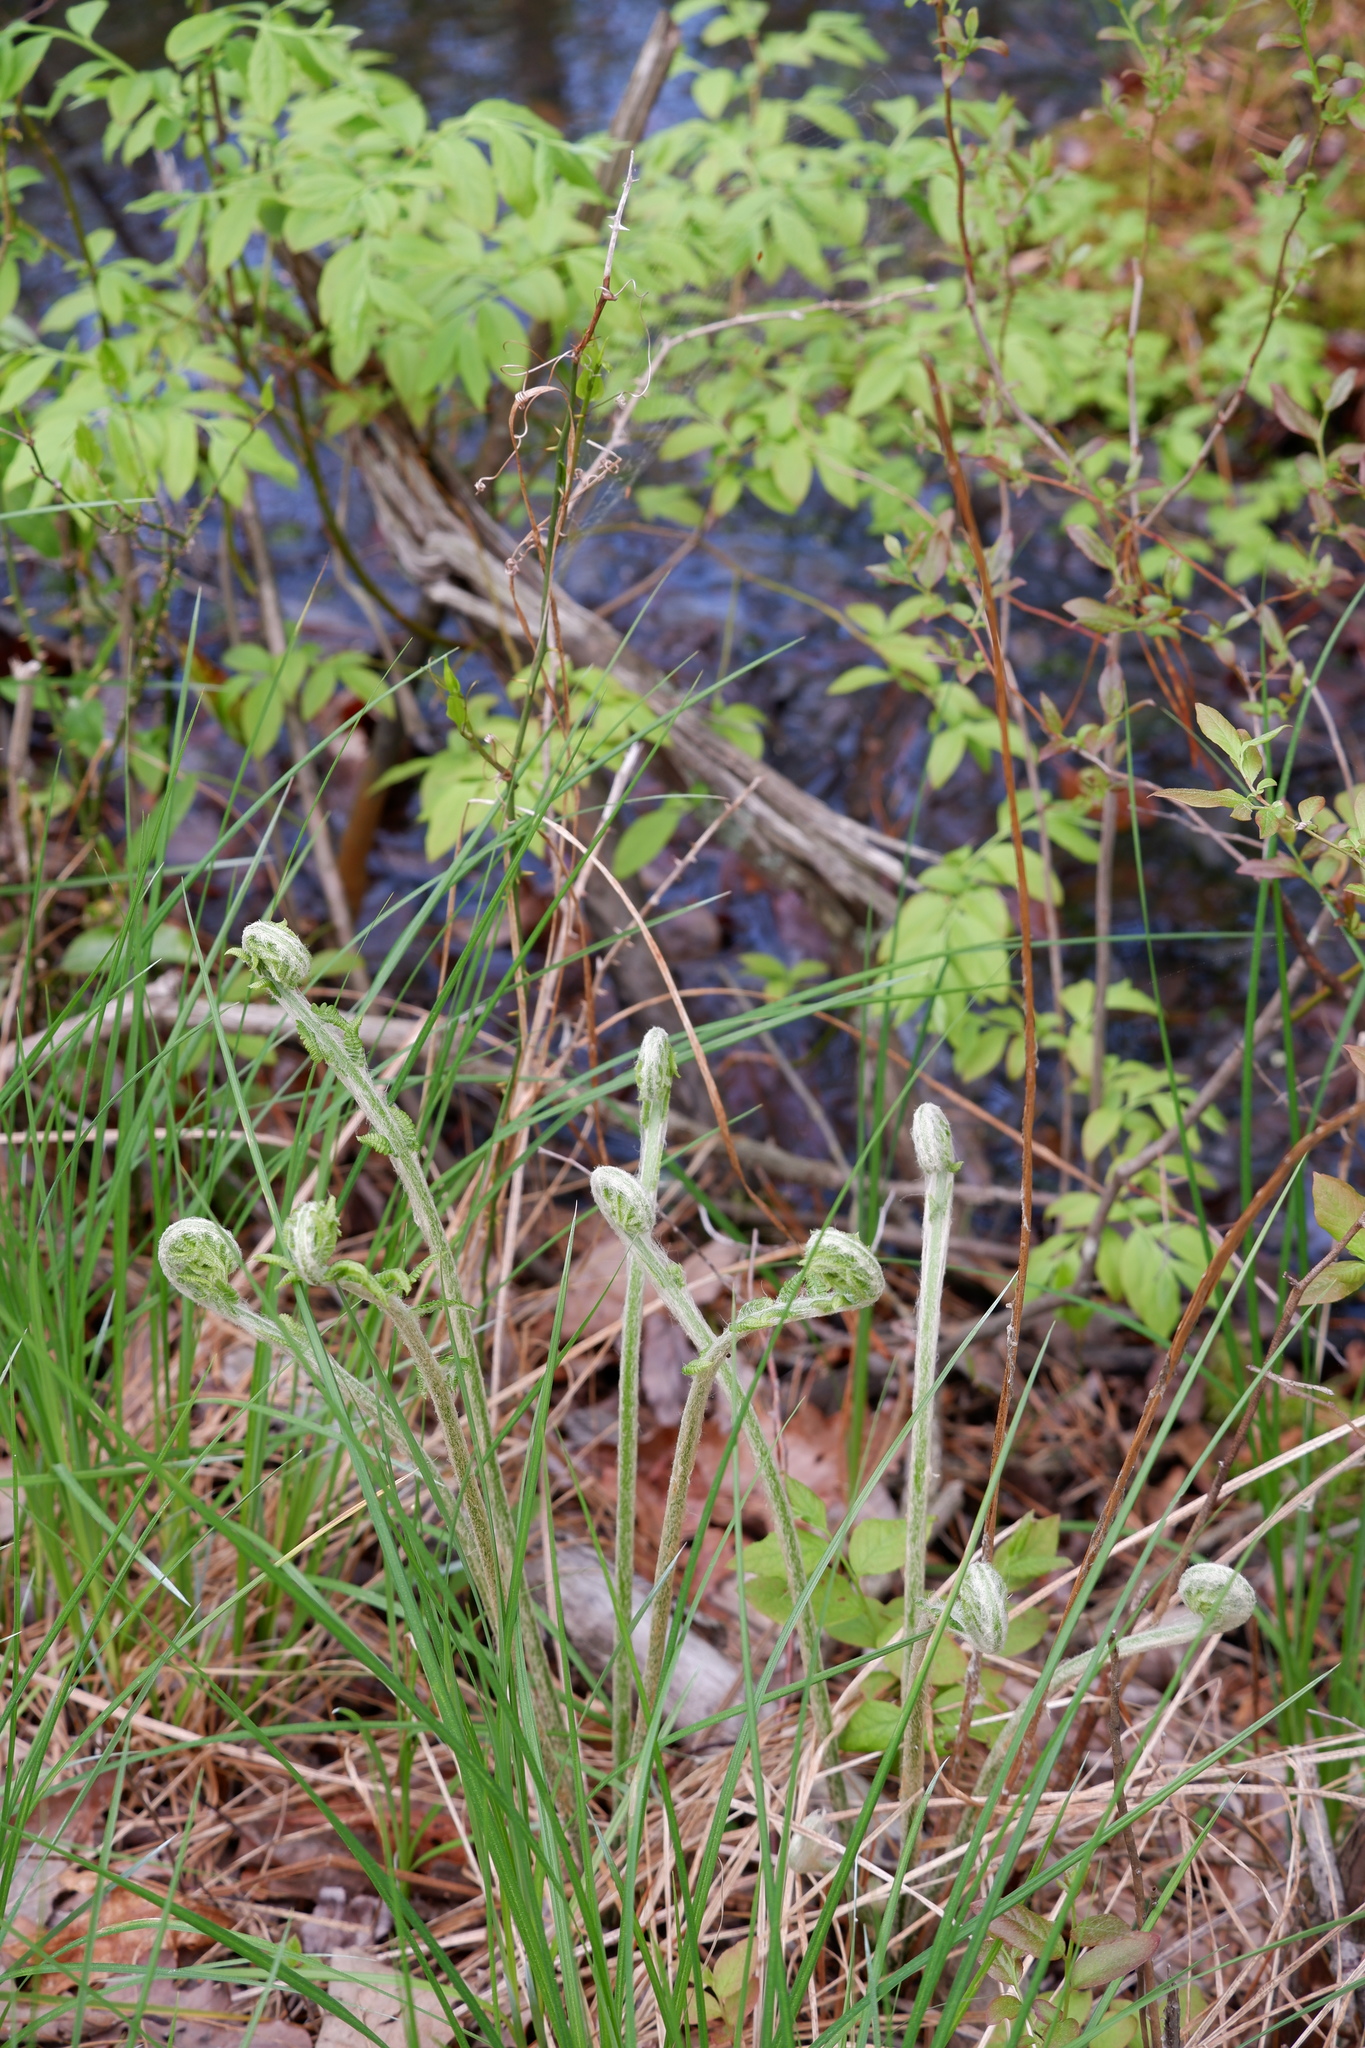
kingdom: Plantae
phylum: Tracheophyta
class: Polypodiopsida
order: Osmundales
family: Osmundaceae
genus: Osmundastrum
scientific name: Osmundastrum cinnamomeum
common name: Cinnamon fern
